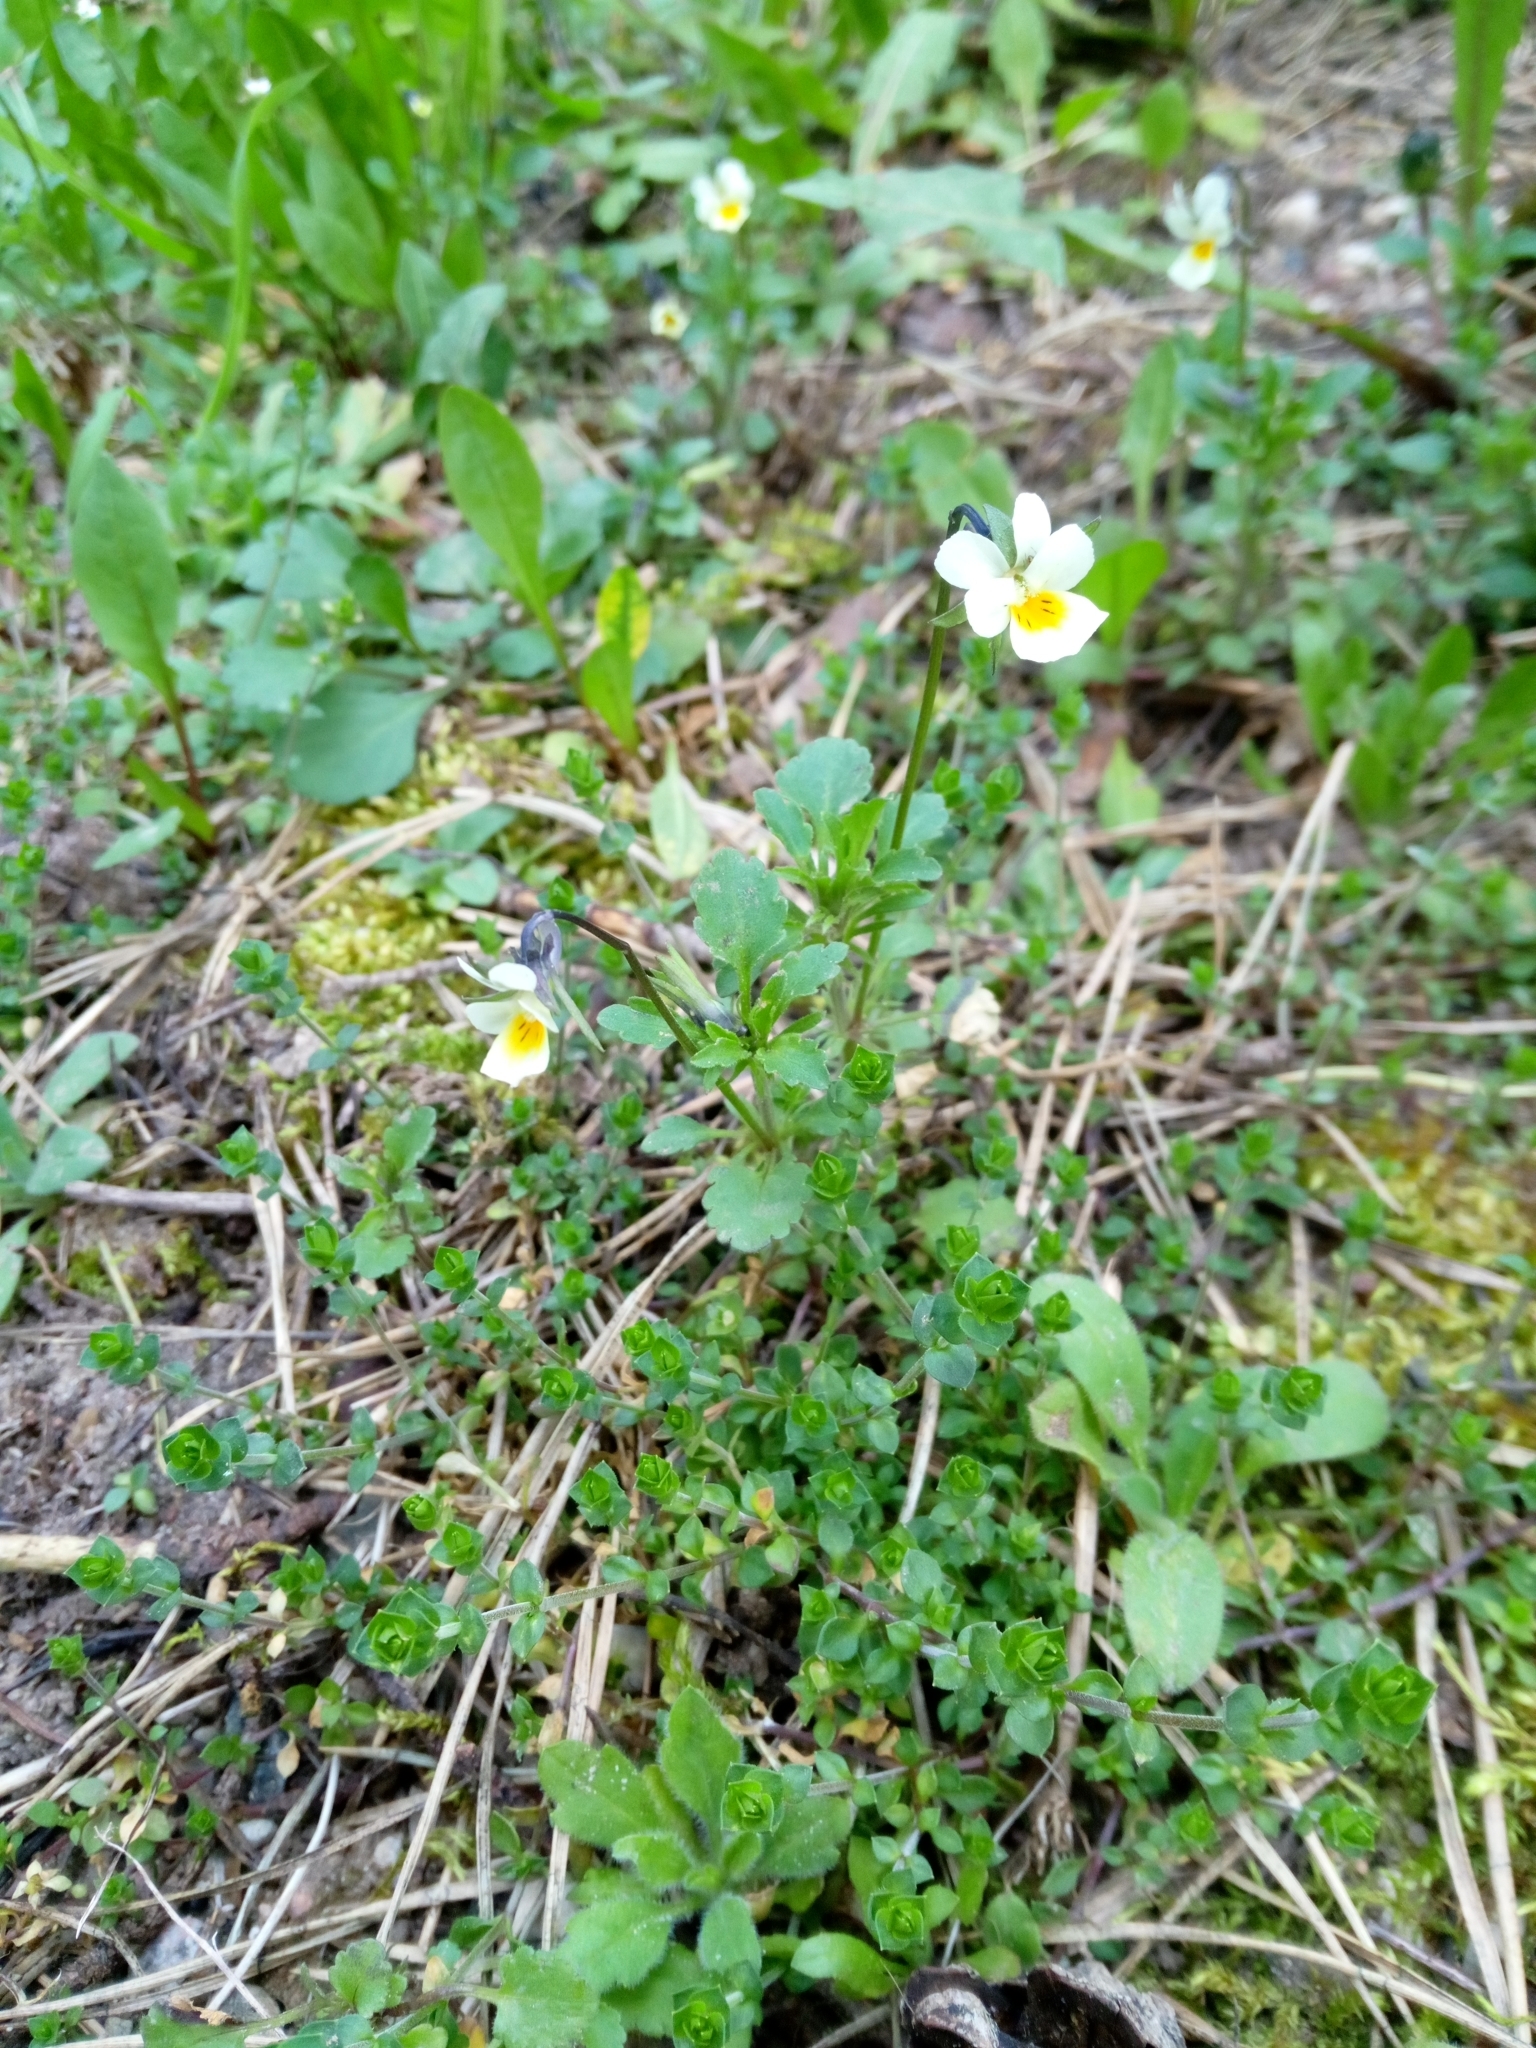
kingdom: Plantae
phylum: Tracheophyta
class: Magnoliopsida
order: Malpighiales
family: Violaceae
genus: Viola
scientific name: Viola arvensis
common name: Field pansy
